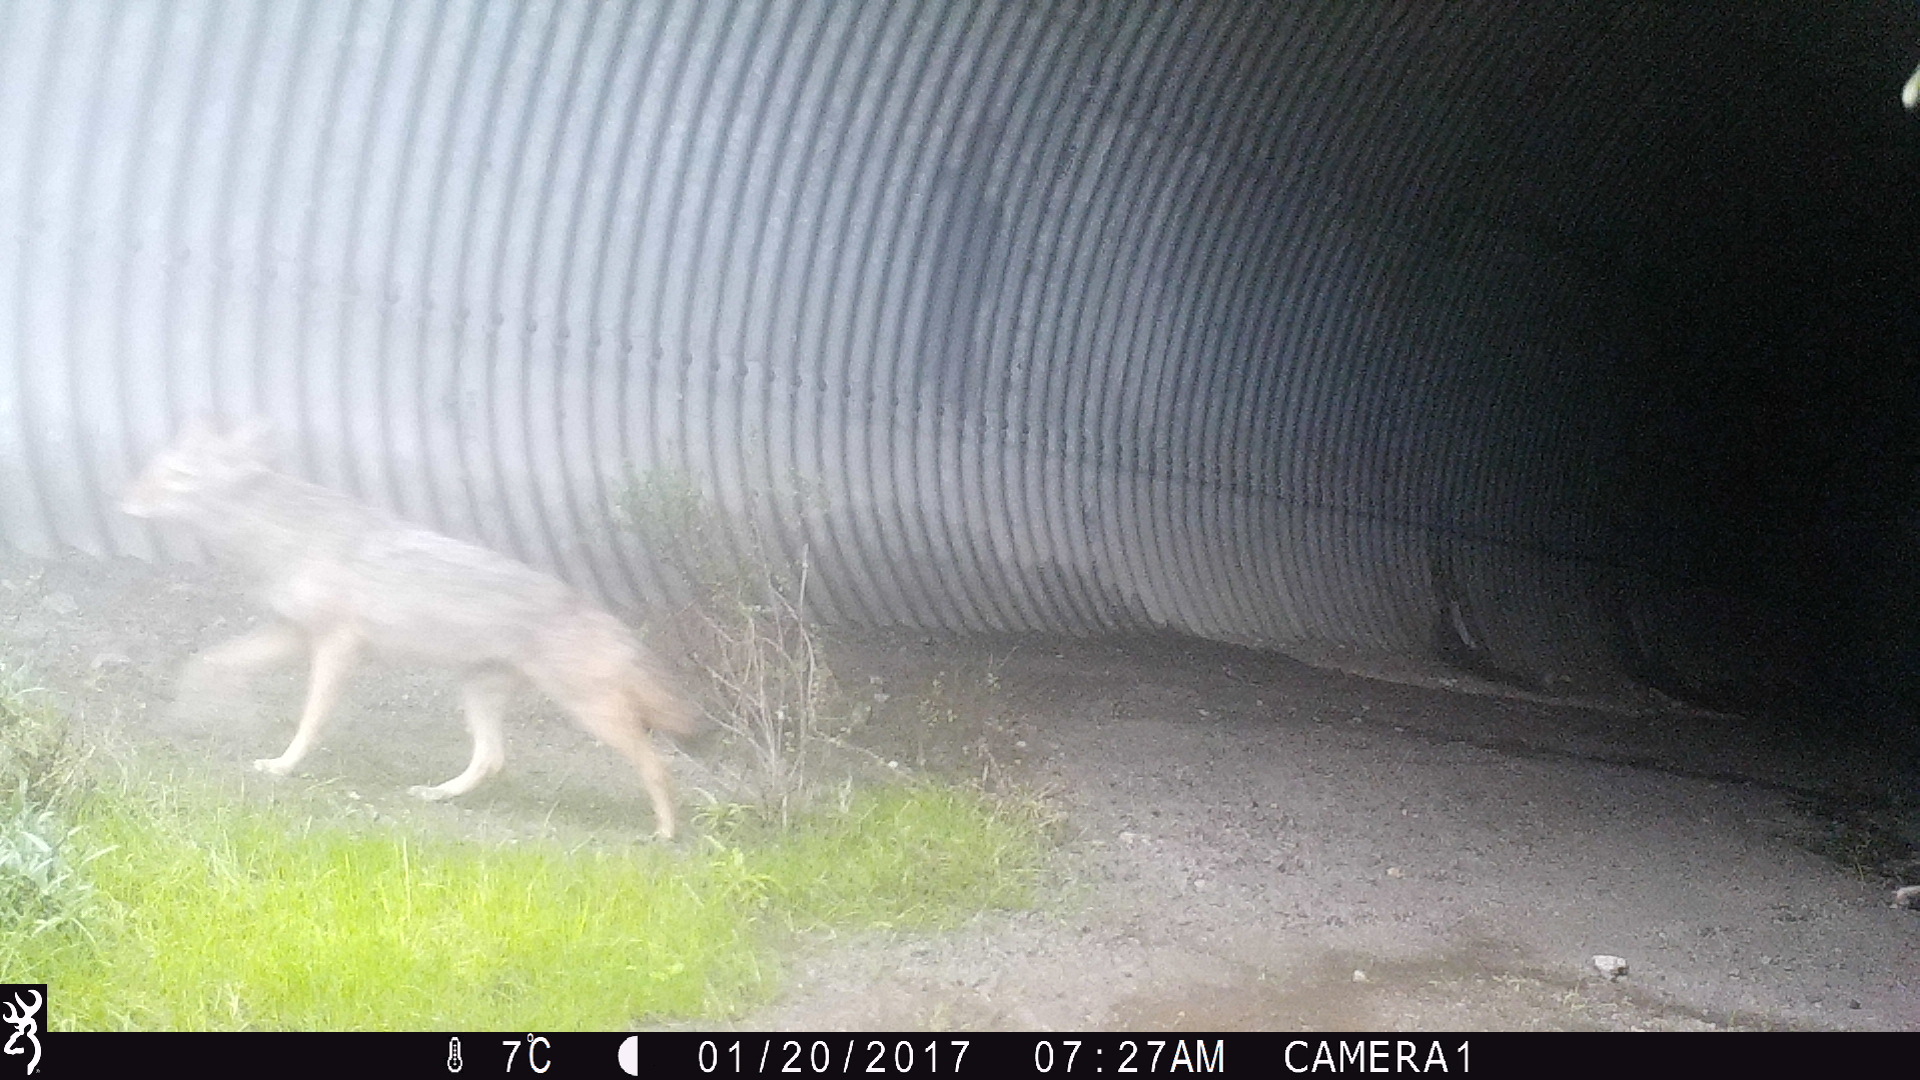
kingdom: Animalia
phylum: Chordata
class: Mammalia
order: Carnivora
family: Canidae
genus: Canis
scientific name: Canis latrans
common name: Coyote
